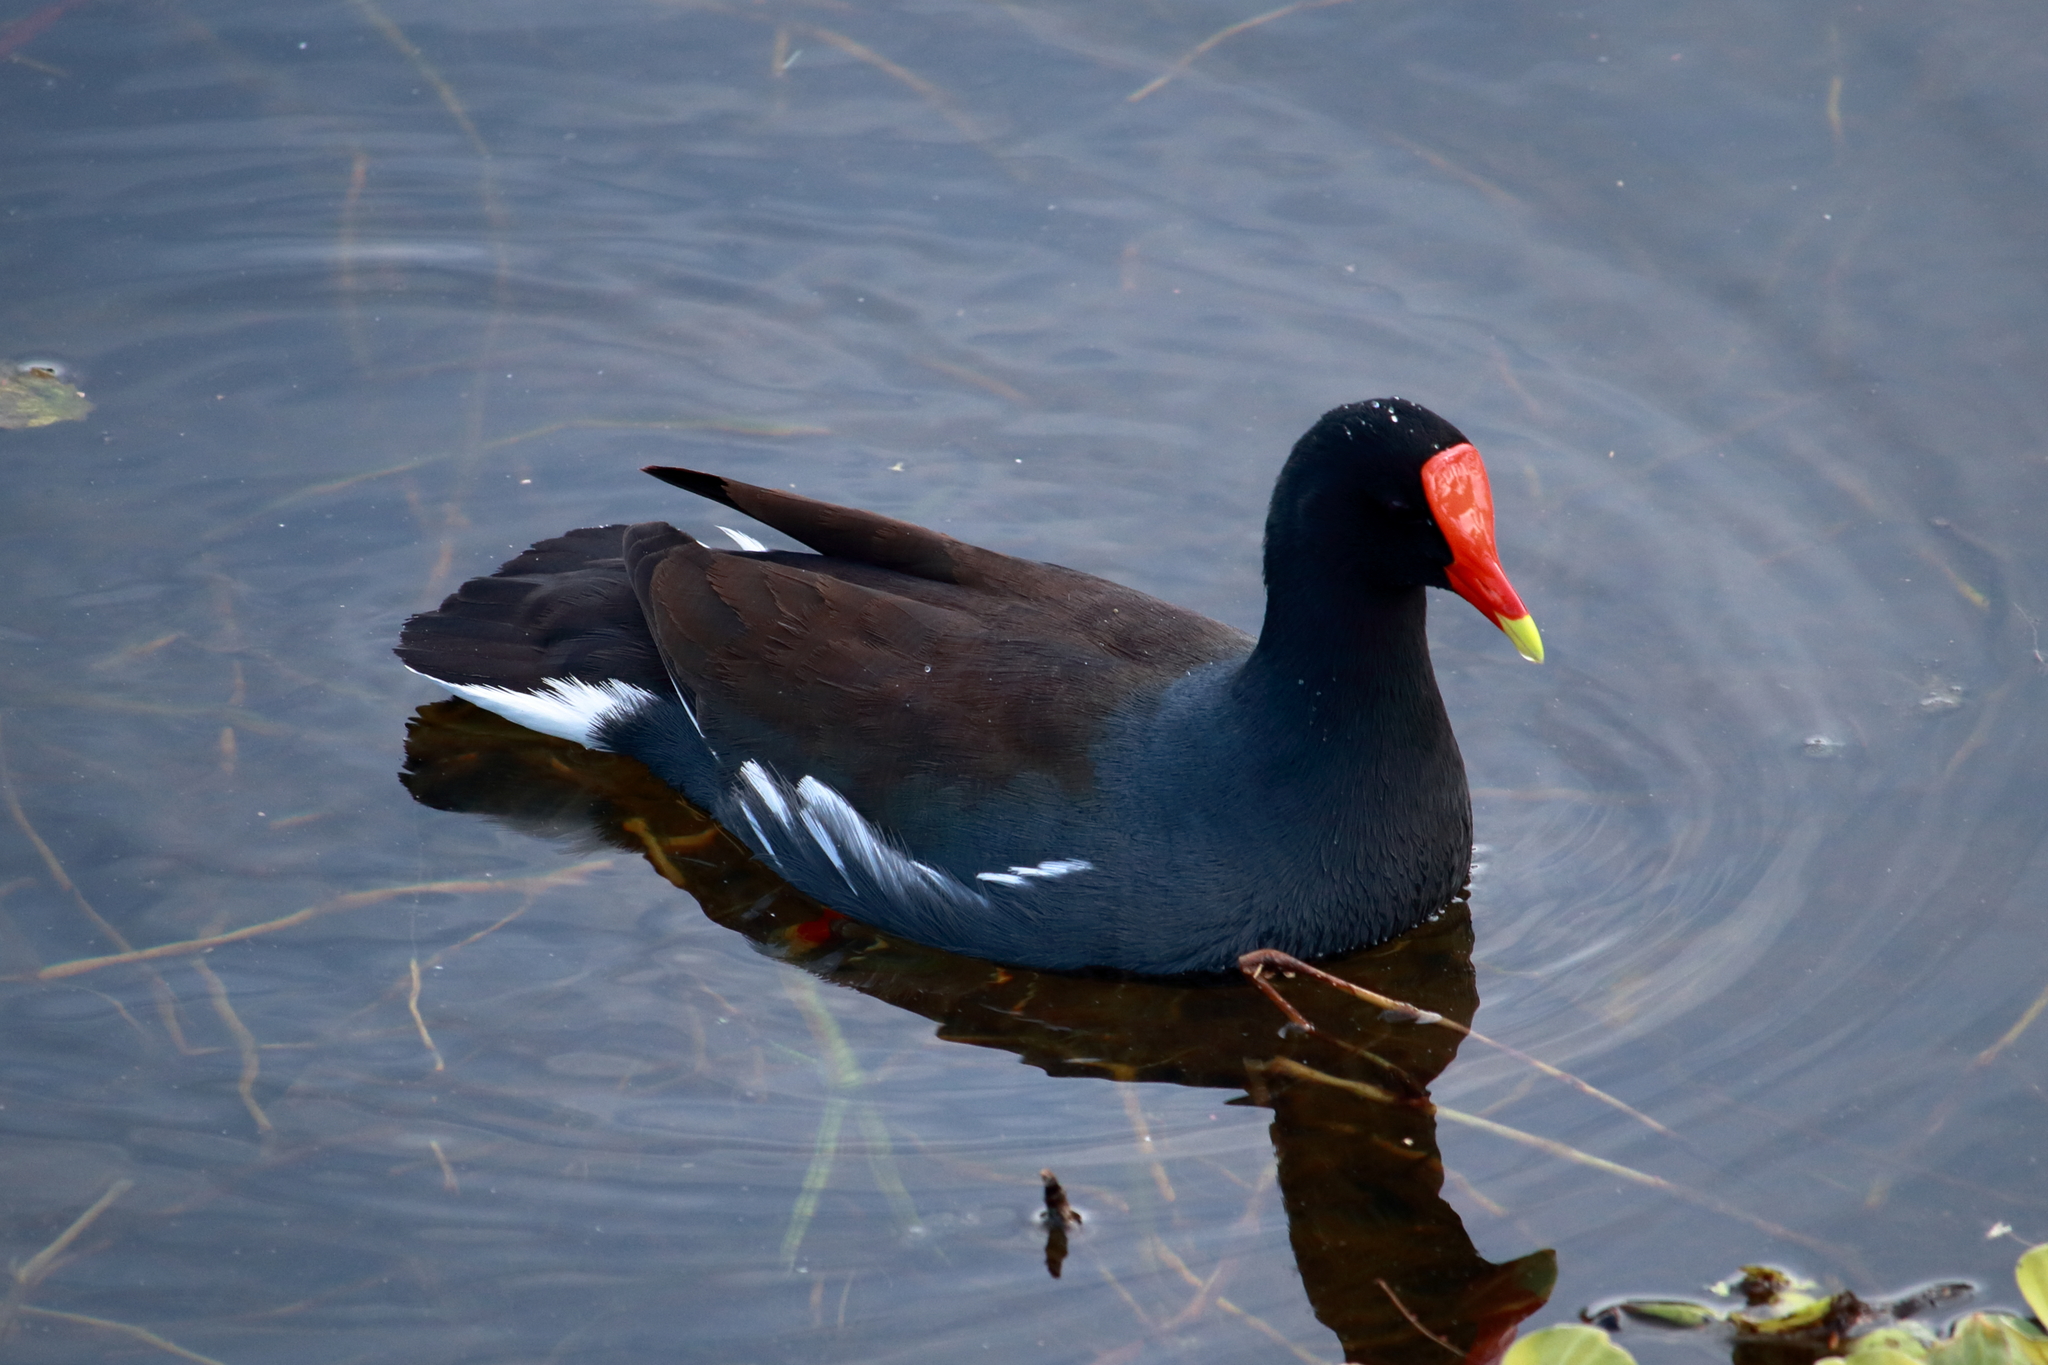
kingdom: Animalia
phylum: Chordata
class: Aves
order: Gruiformes
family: Rallidae
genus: Gallinula
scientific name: Gallinula chloropus
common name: Common moorhen
